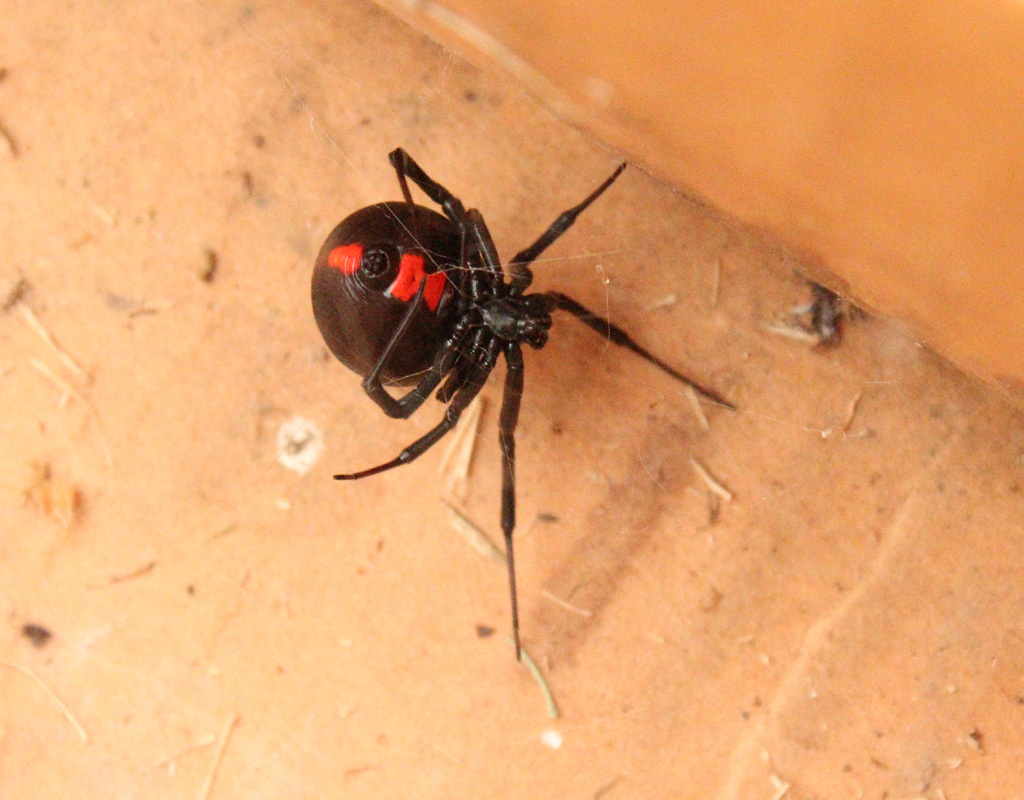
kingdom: Animalia
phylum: Arthropoda
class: Arachnida
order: Araneae
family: Theridiidae
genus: Latrodectus
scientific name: Latrodectus mactans
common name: Cobweb spiders
